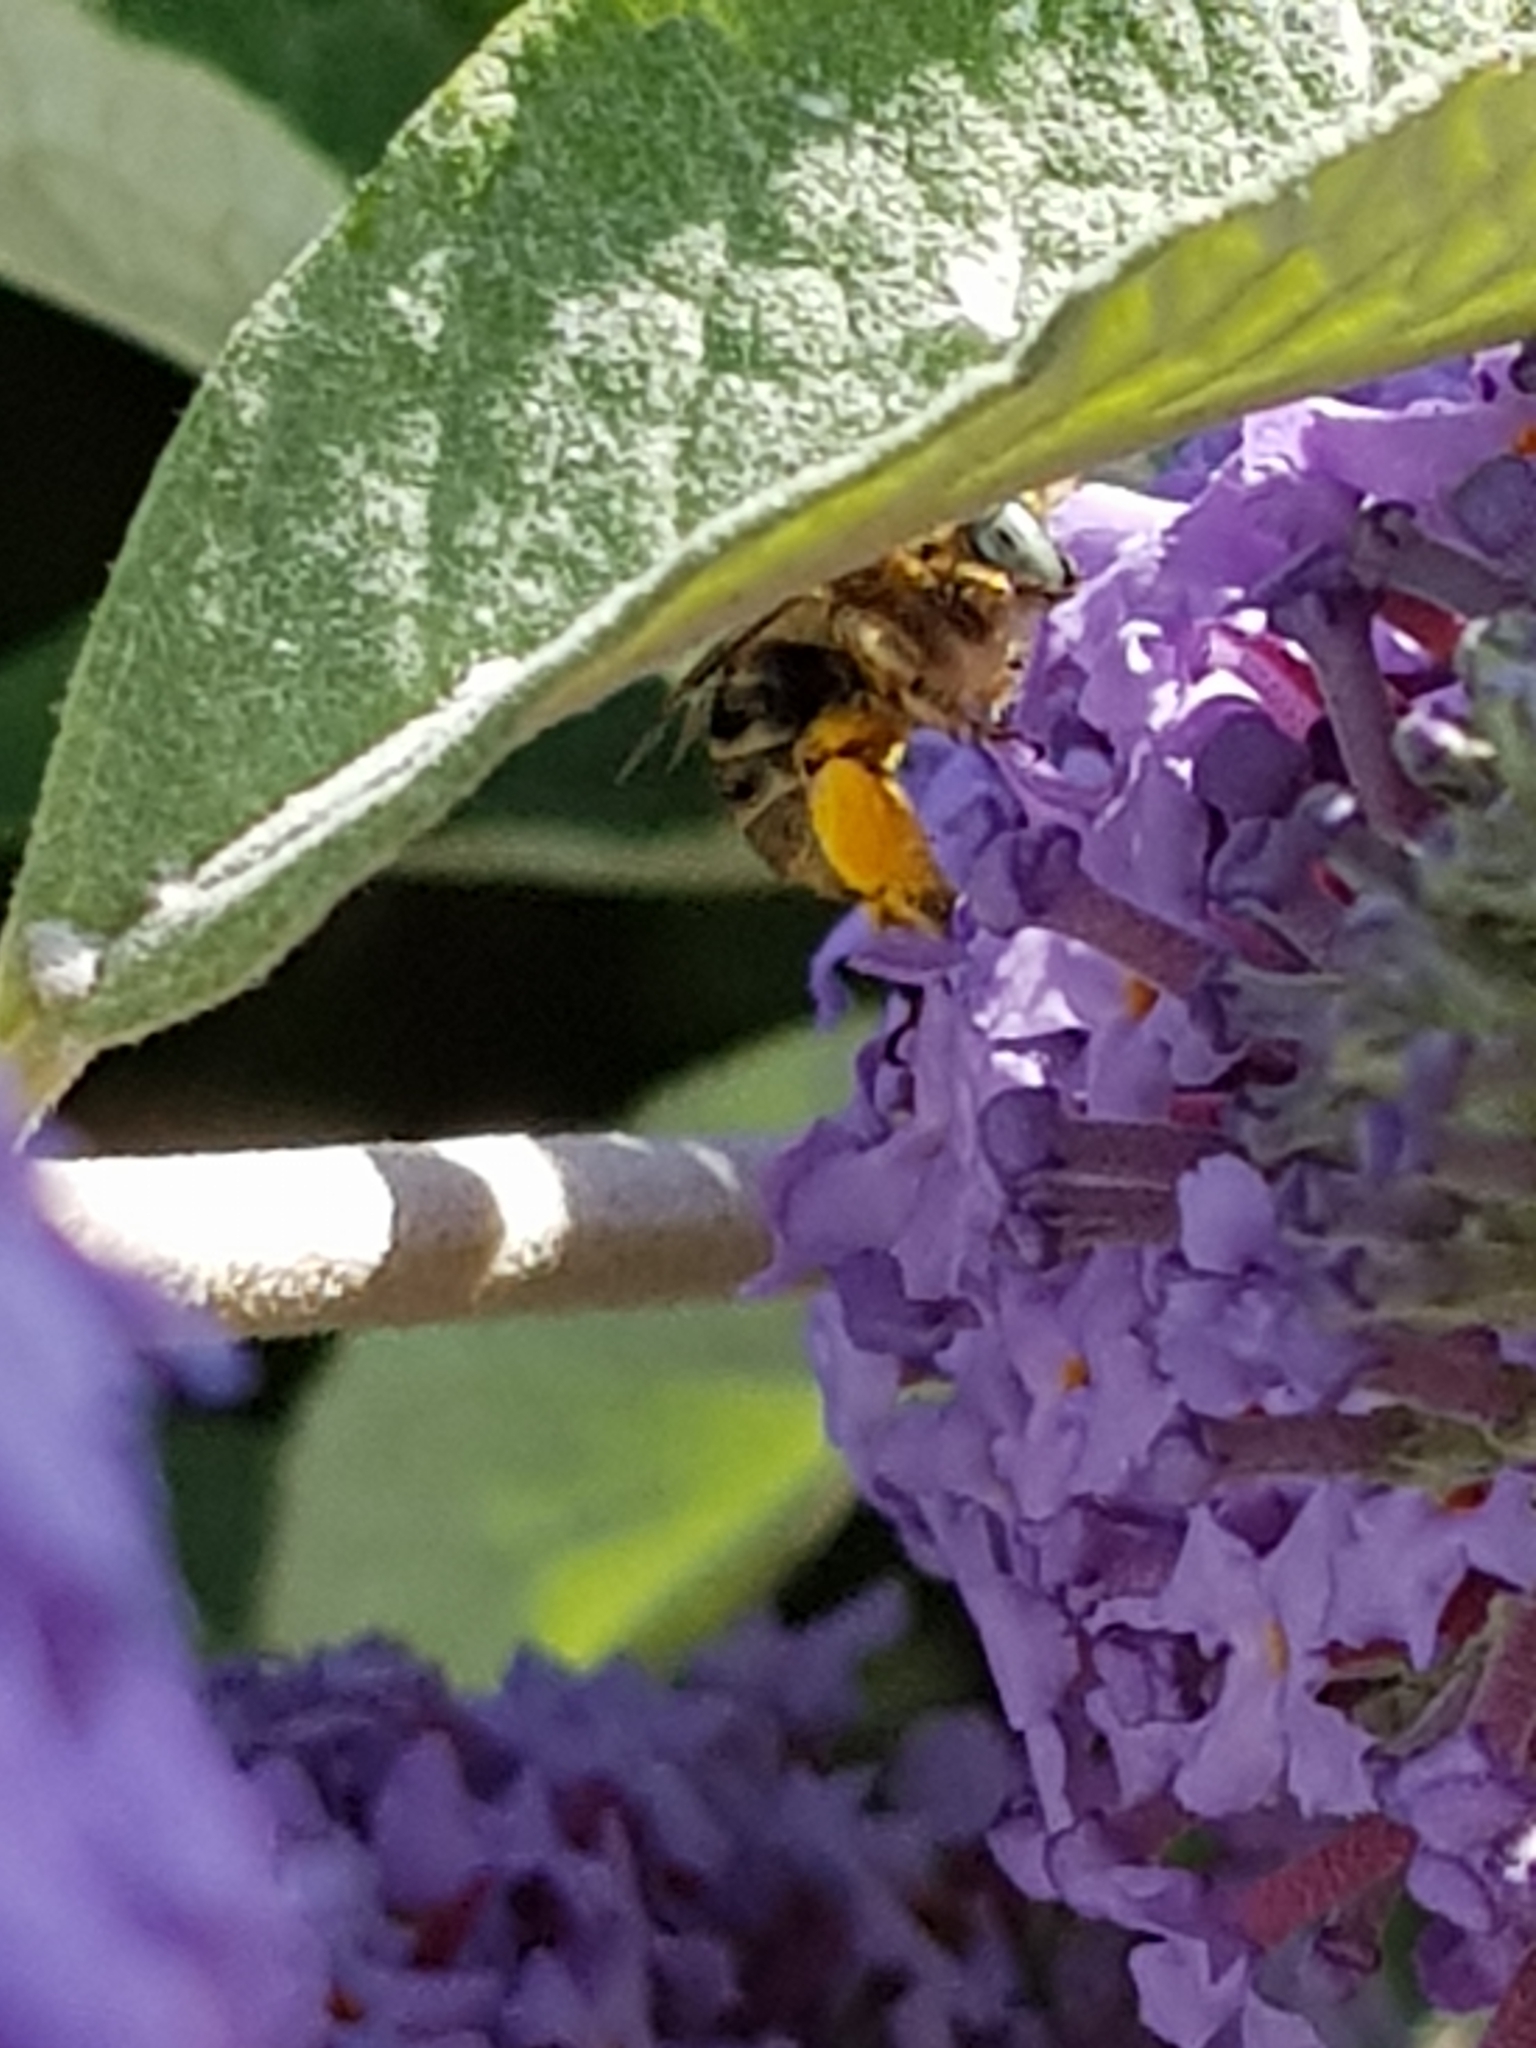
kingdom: Animalia
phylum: Arthropoda
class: Insecta
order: Hymenoptera
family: Apidae
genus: Anthophora
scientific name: Anthophora bimaculata
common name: Green-eyed flower bee
